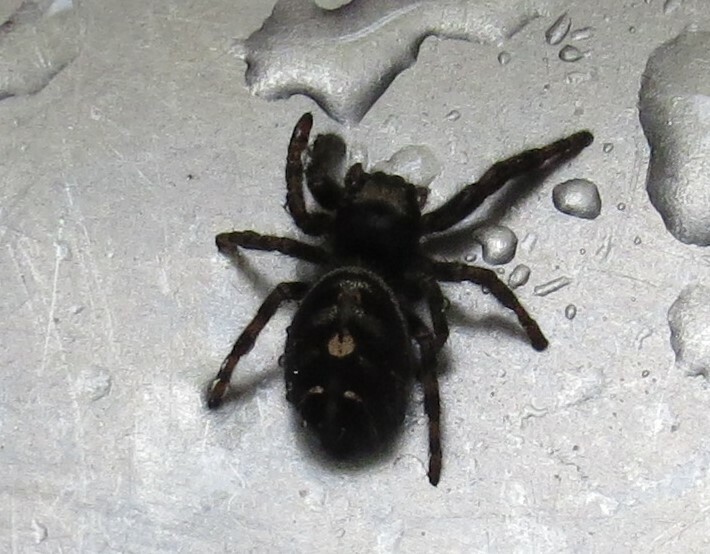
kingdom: Animalia
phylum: Arthropoda
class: Arachnida
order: Araneae
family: Salticidae
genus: Phidippus
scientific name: Phidippus audax
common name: Bold jumper
